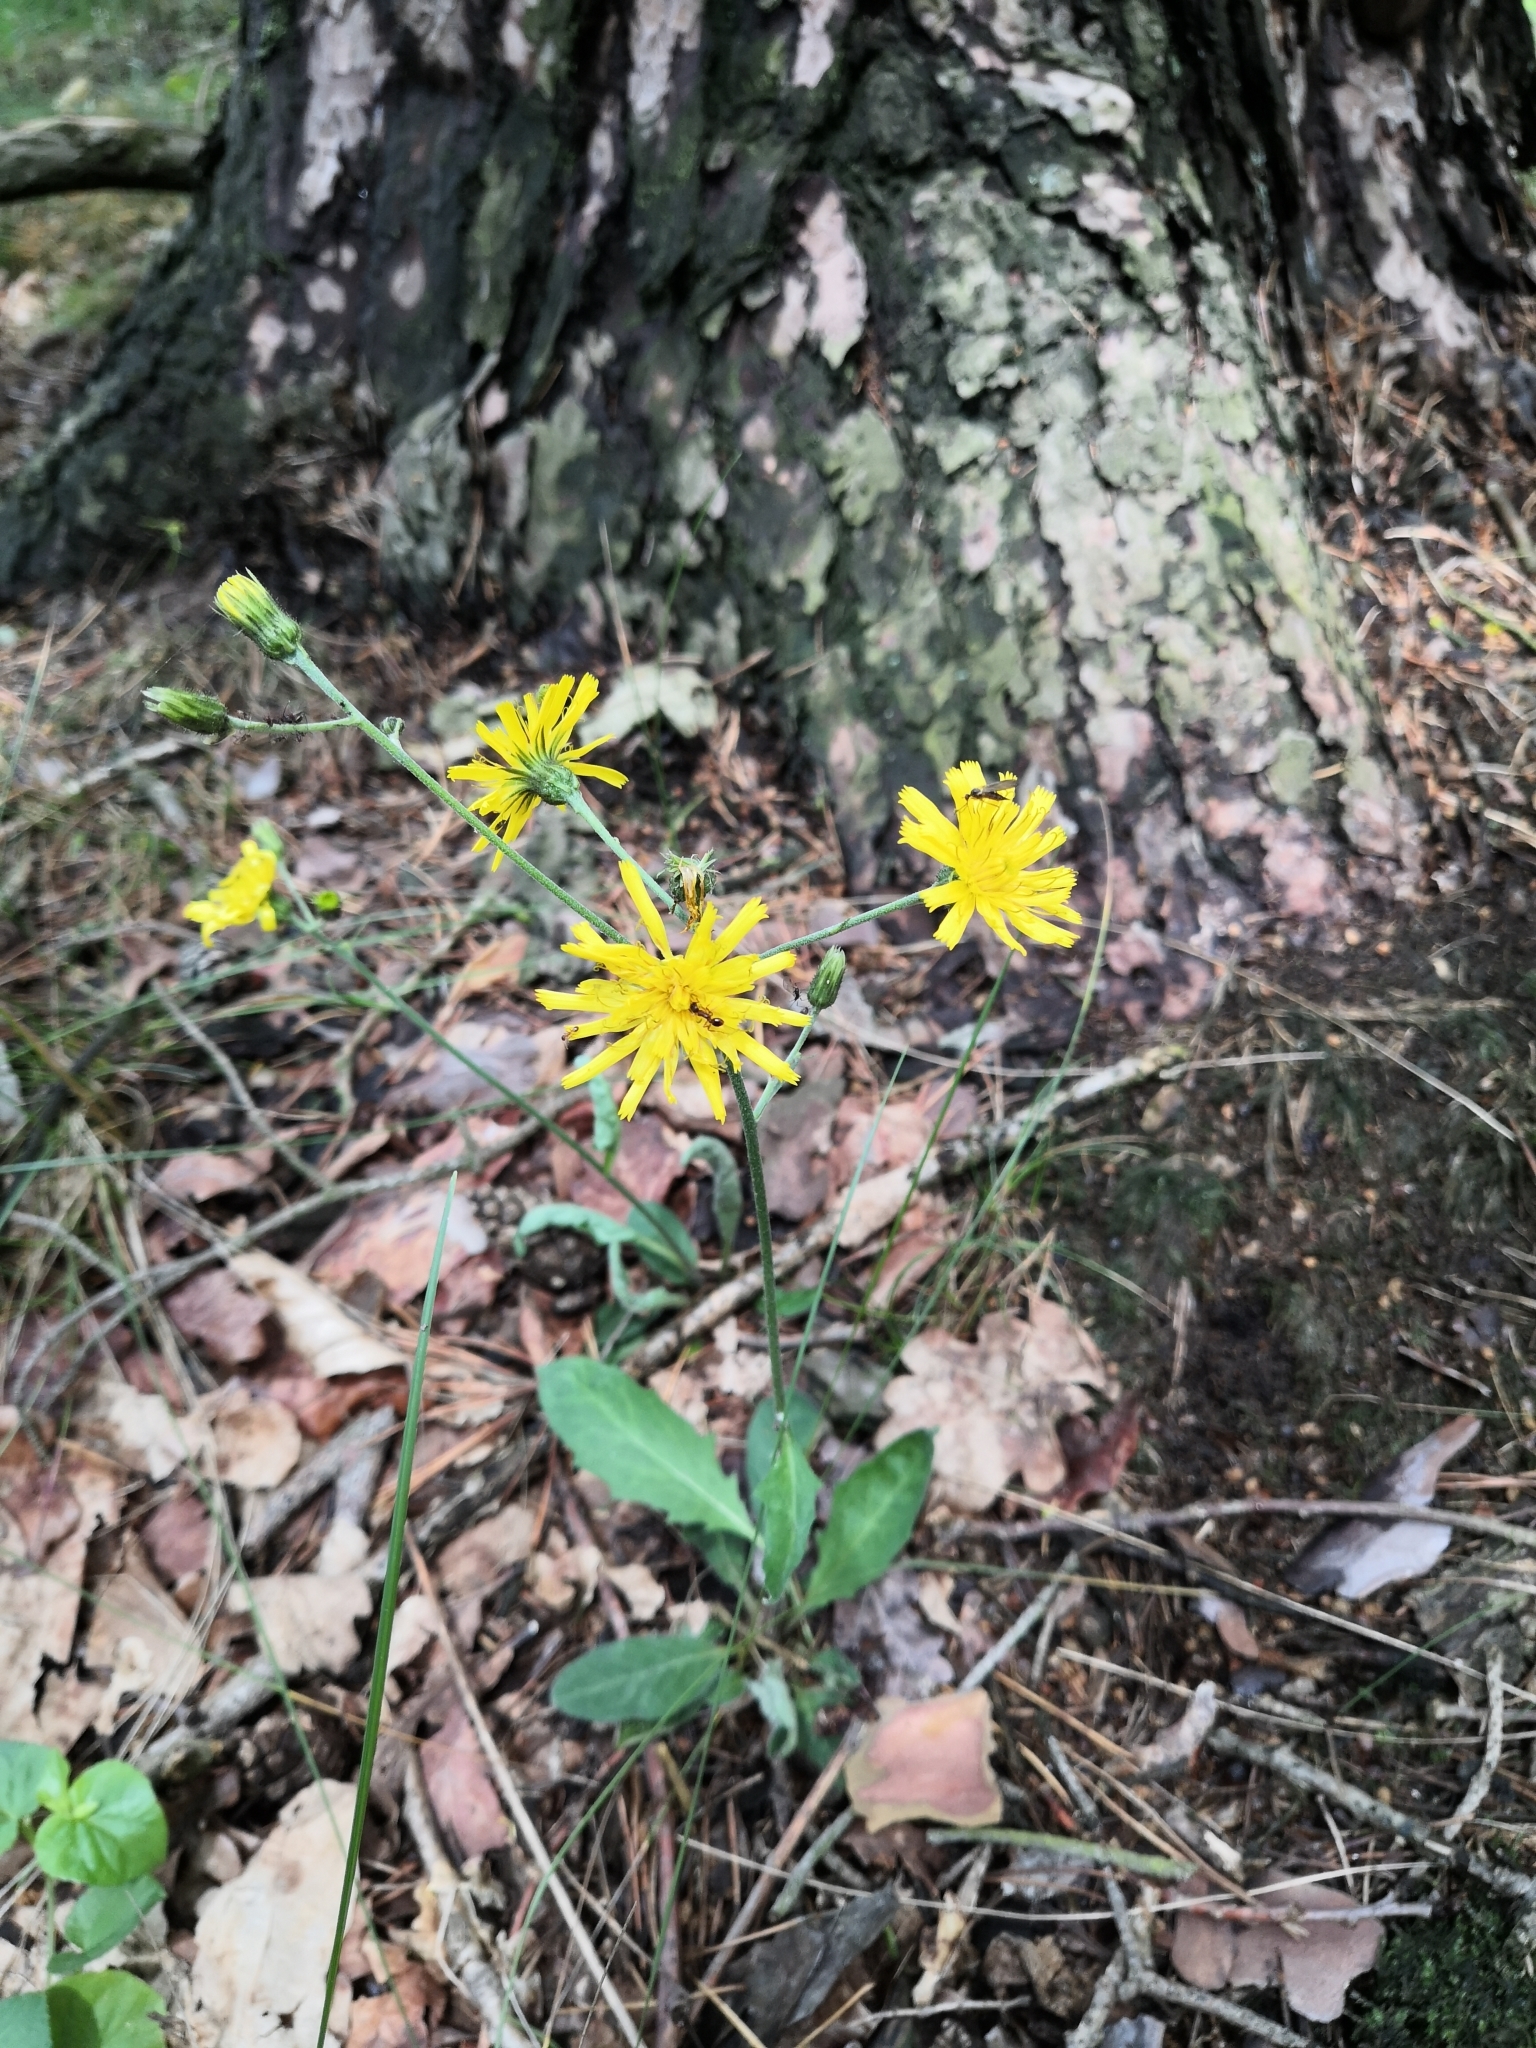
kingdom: Plantae
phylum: Tracheophyta
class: Magnoliopsida
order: Asterales
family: Asteraceae
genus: Hieracium
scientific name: Hieracium murorum
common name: Wall hawkweed
